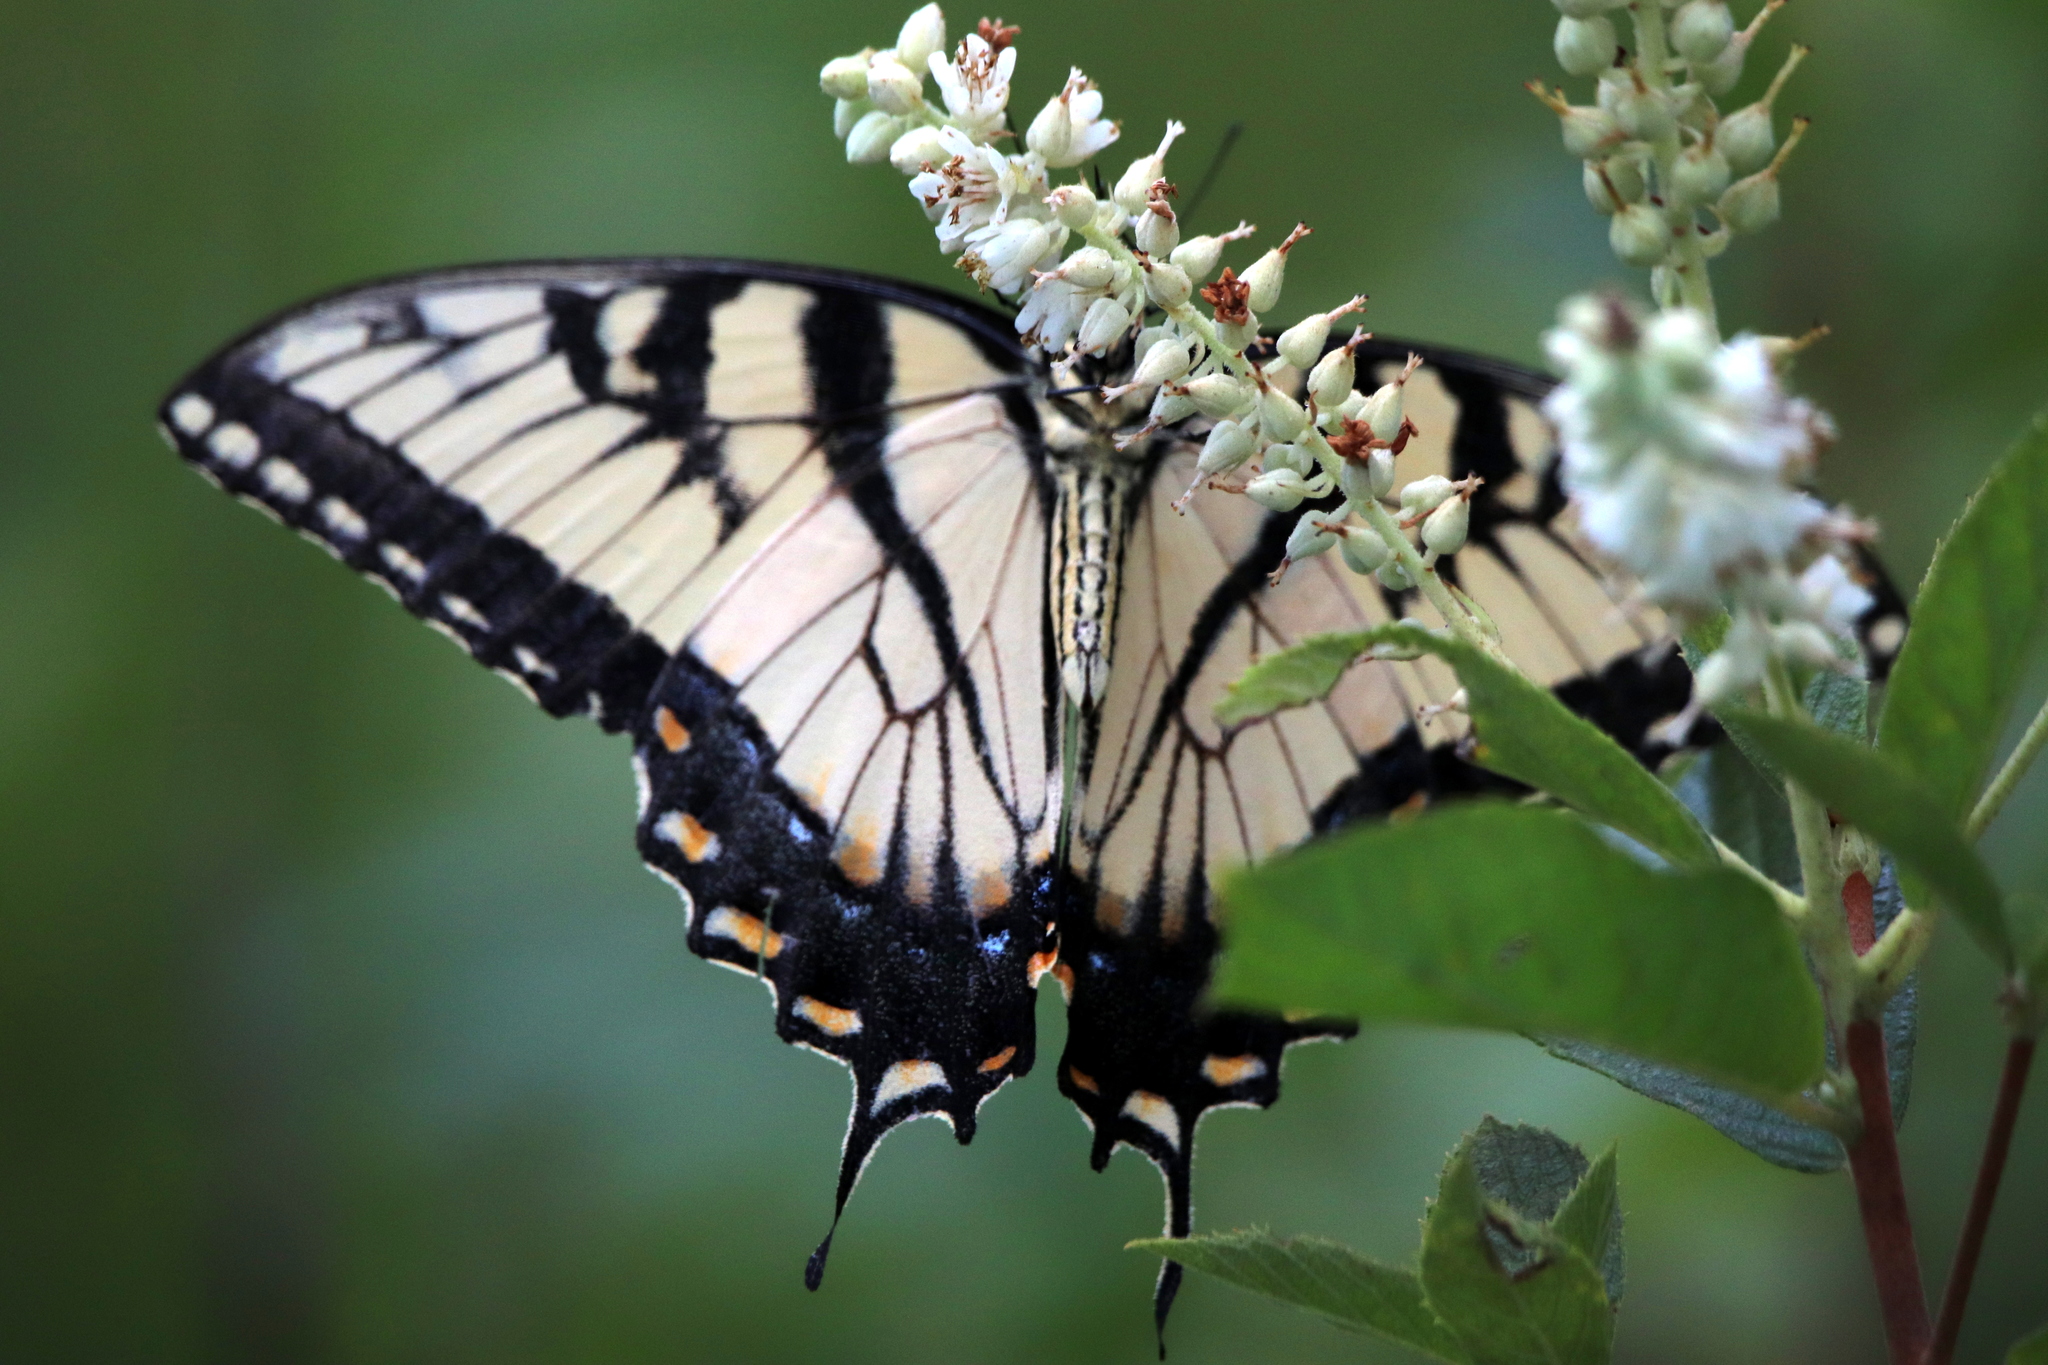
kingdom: Animalia
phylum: Arthropoda
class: Insecta
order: Lepidoptera
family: Papilionidae
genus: Papilio
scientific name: Papilio glaucus
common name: Tiger swallowtail
